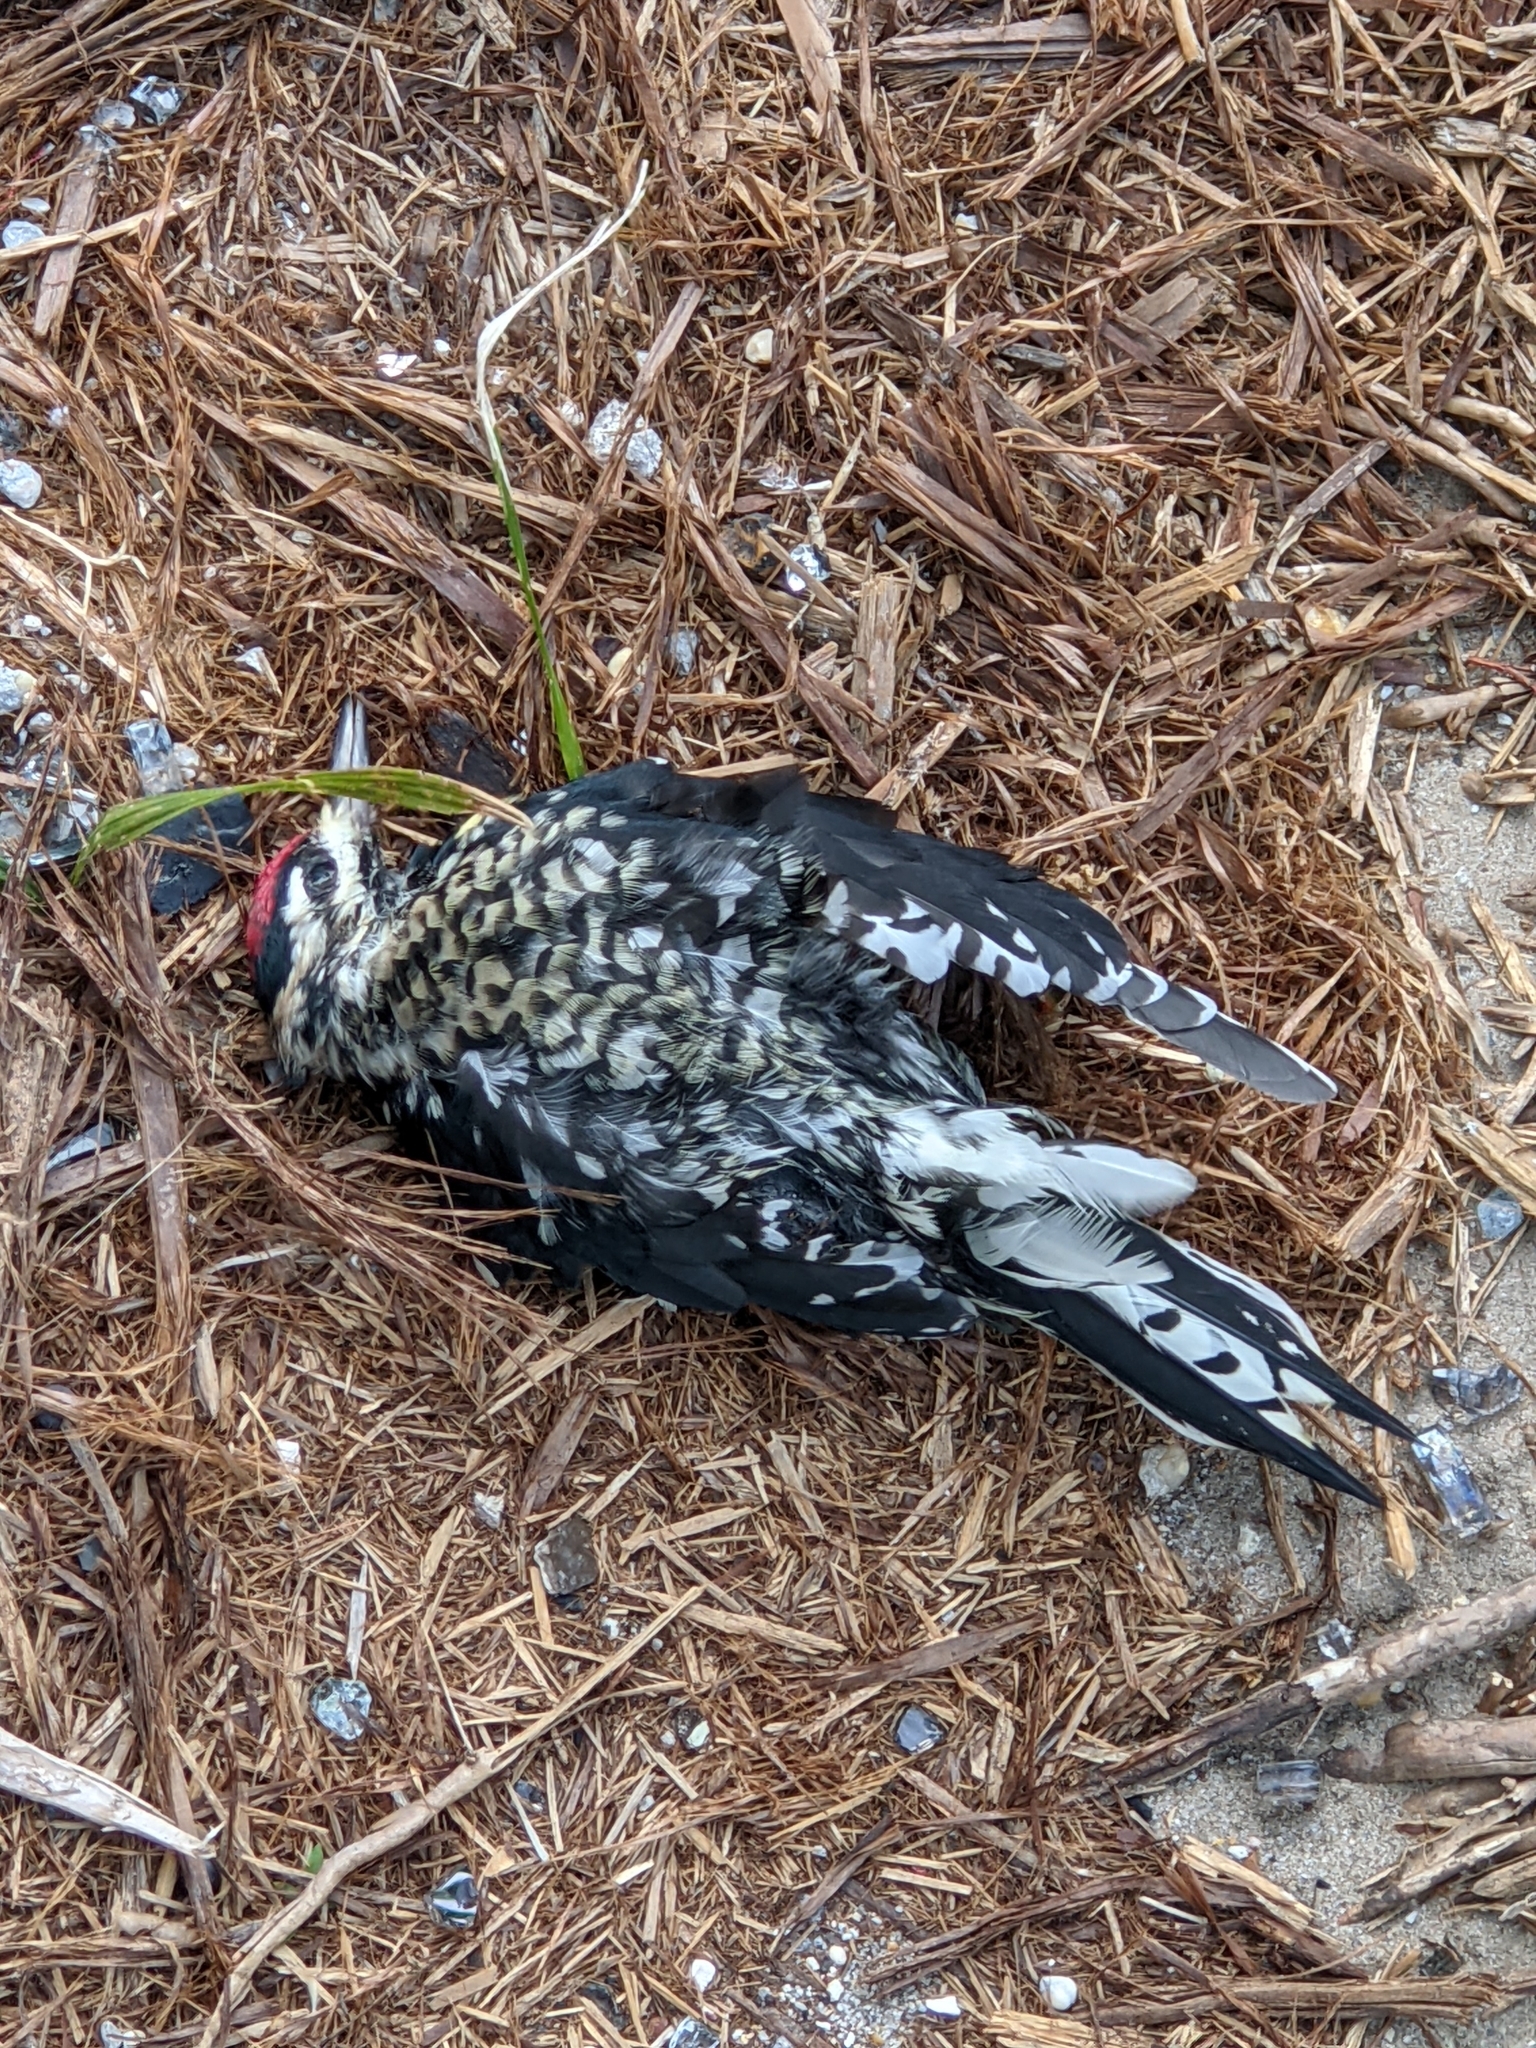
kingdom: Animalia
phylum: Chordata
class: Aves
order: Piciformes
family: Picidae
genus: Sphyrapicus
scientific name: Sphyrapicus varius
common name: Yellow-bellied sapsucker
